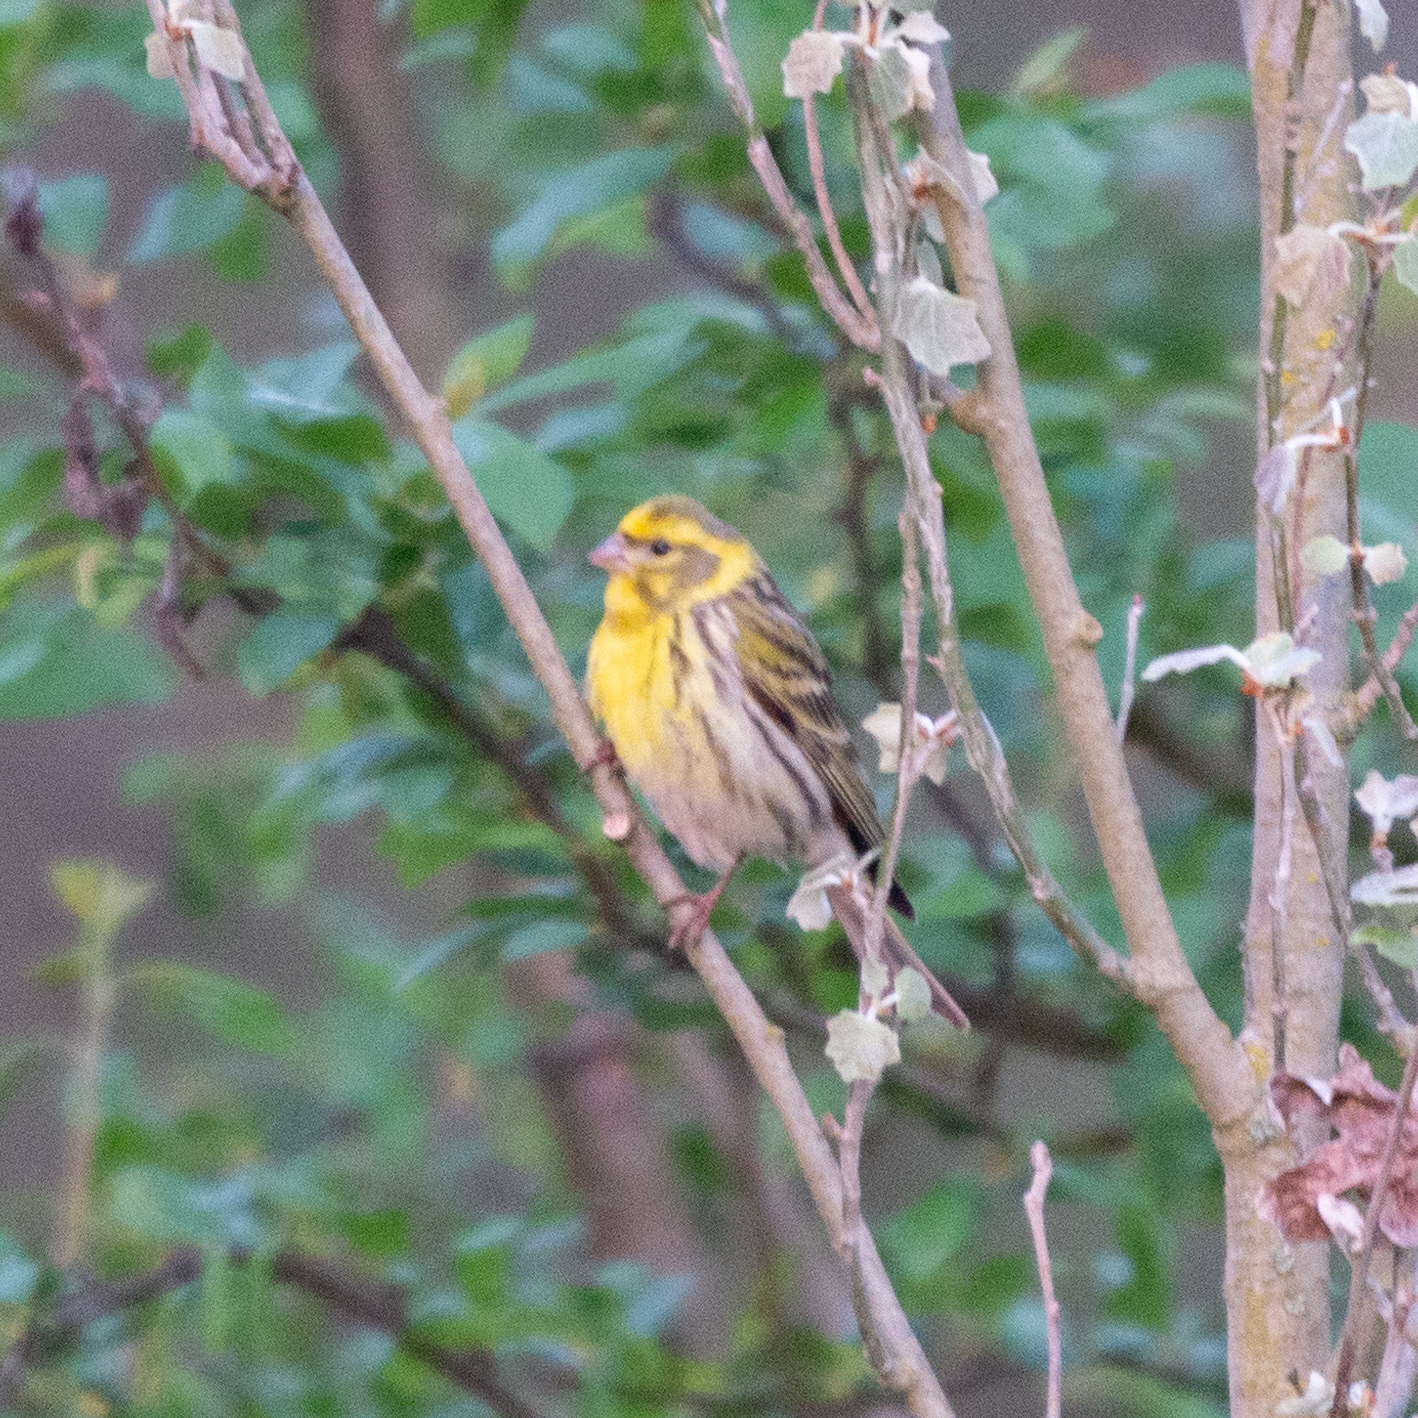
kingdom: Animalia
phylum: Chordata
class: Aves
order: Passeriformes
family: Fringillidae
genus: Serinus
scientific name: Serinus serinus
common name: European serin
